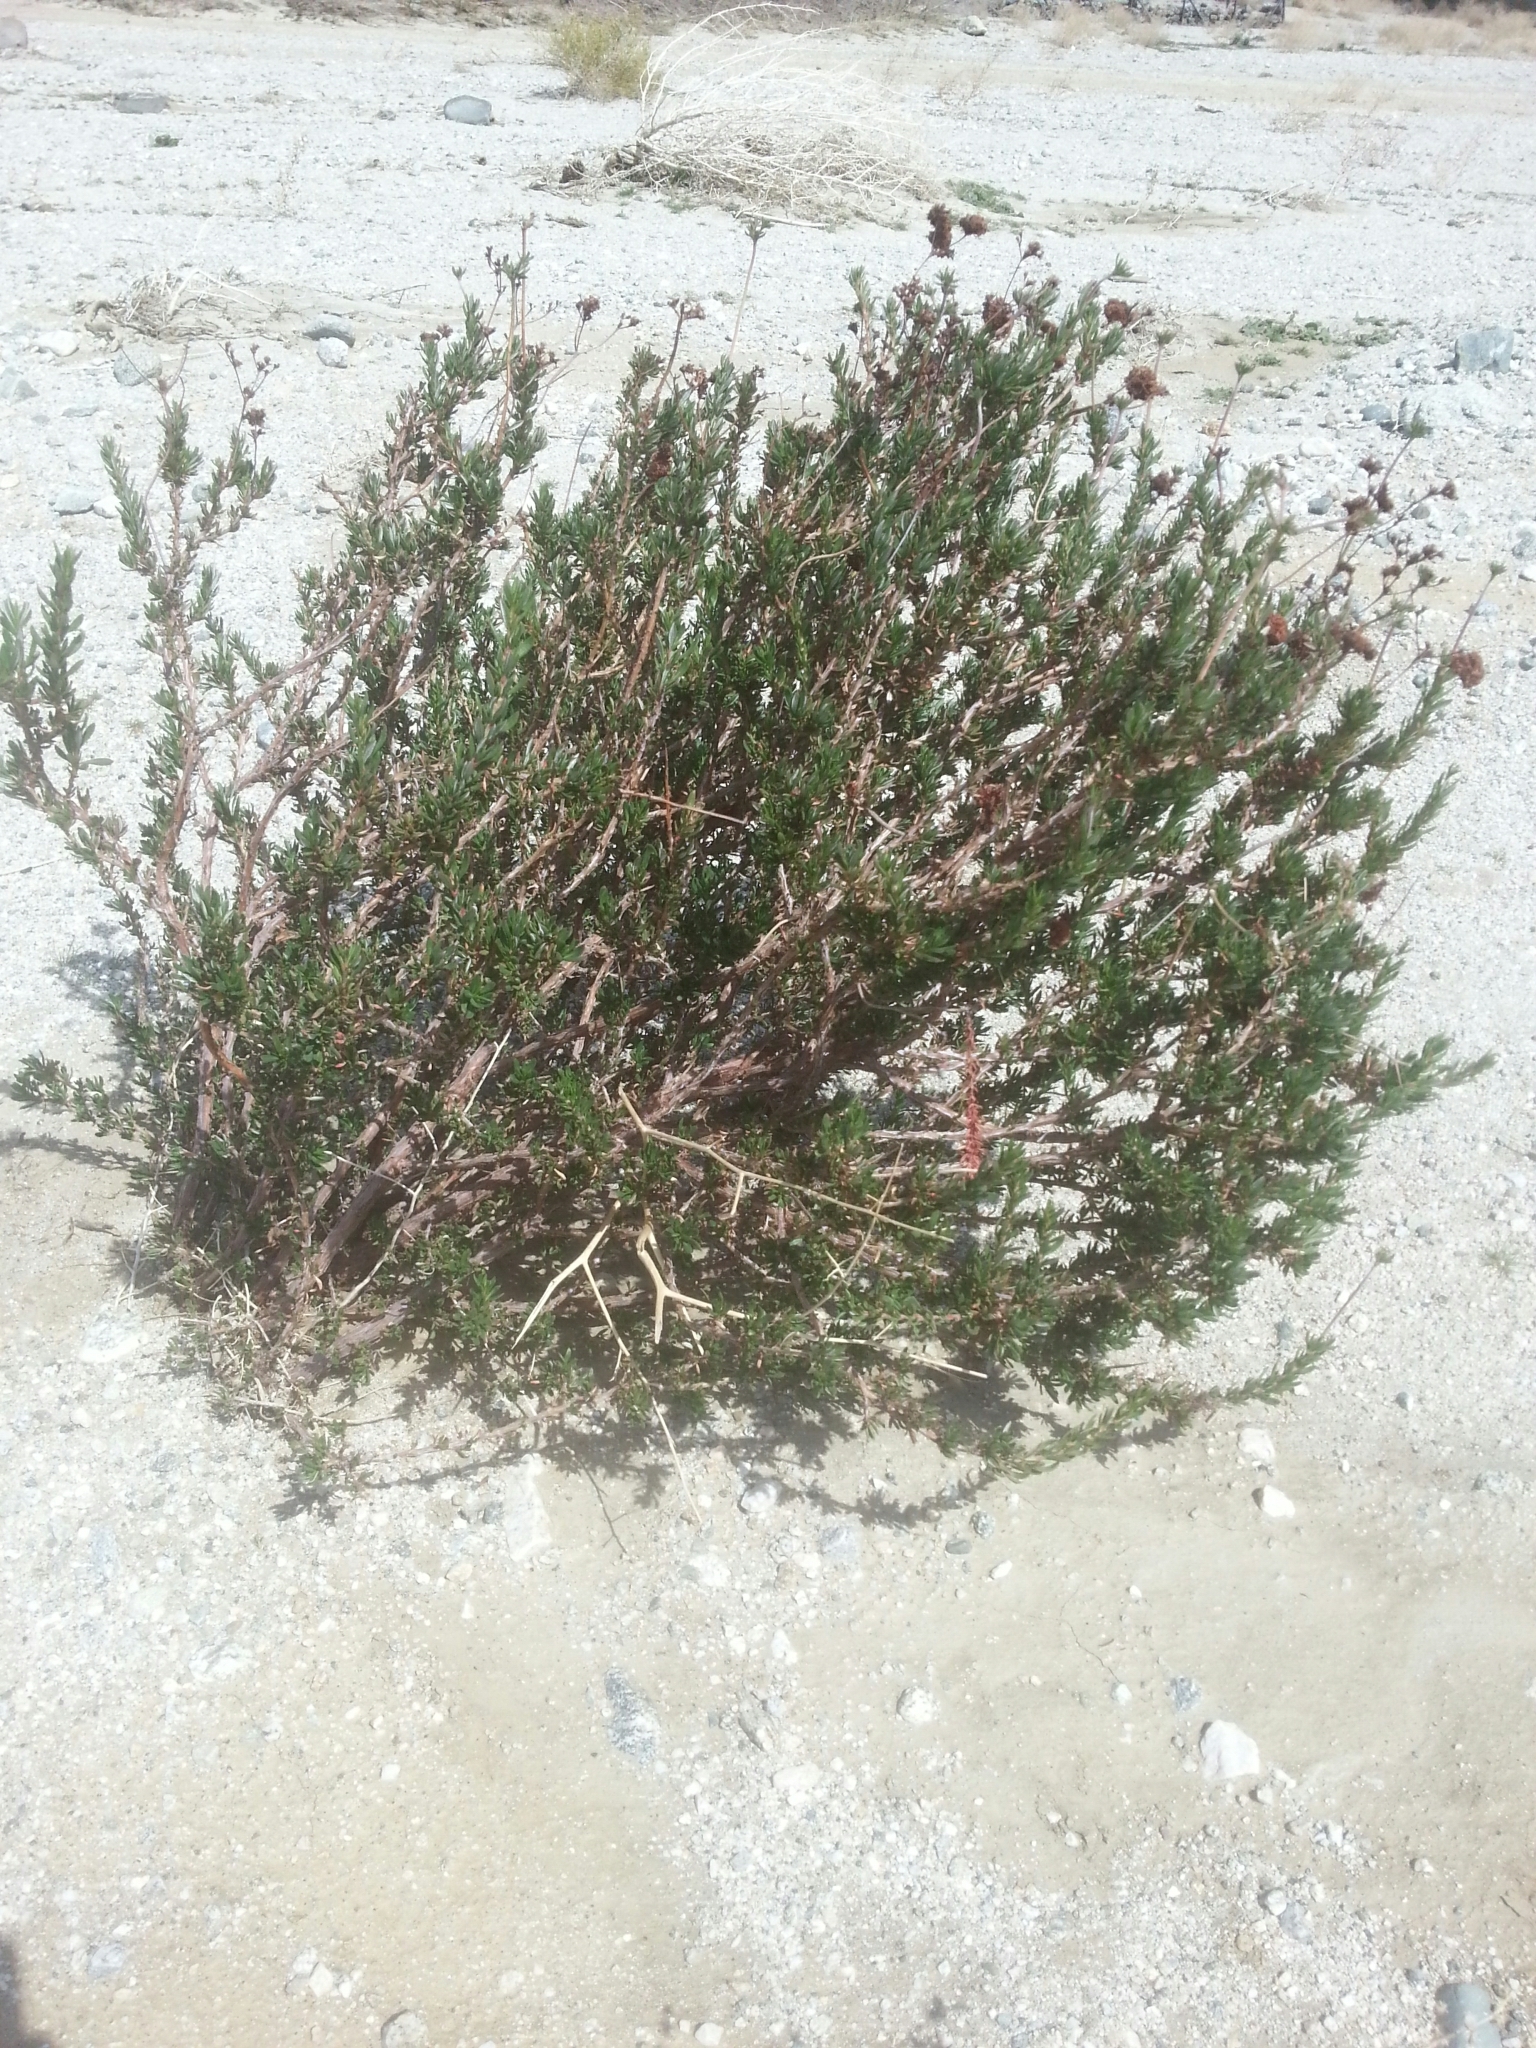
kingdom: Plantae
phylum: Tracheophyta
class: Magnoliopsida
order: Caryophyllales
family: Polygonaceae
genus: Eriogonum
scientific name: Eriogonum fasciculatum
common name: California wild buckwheat
